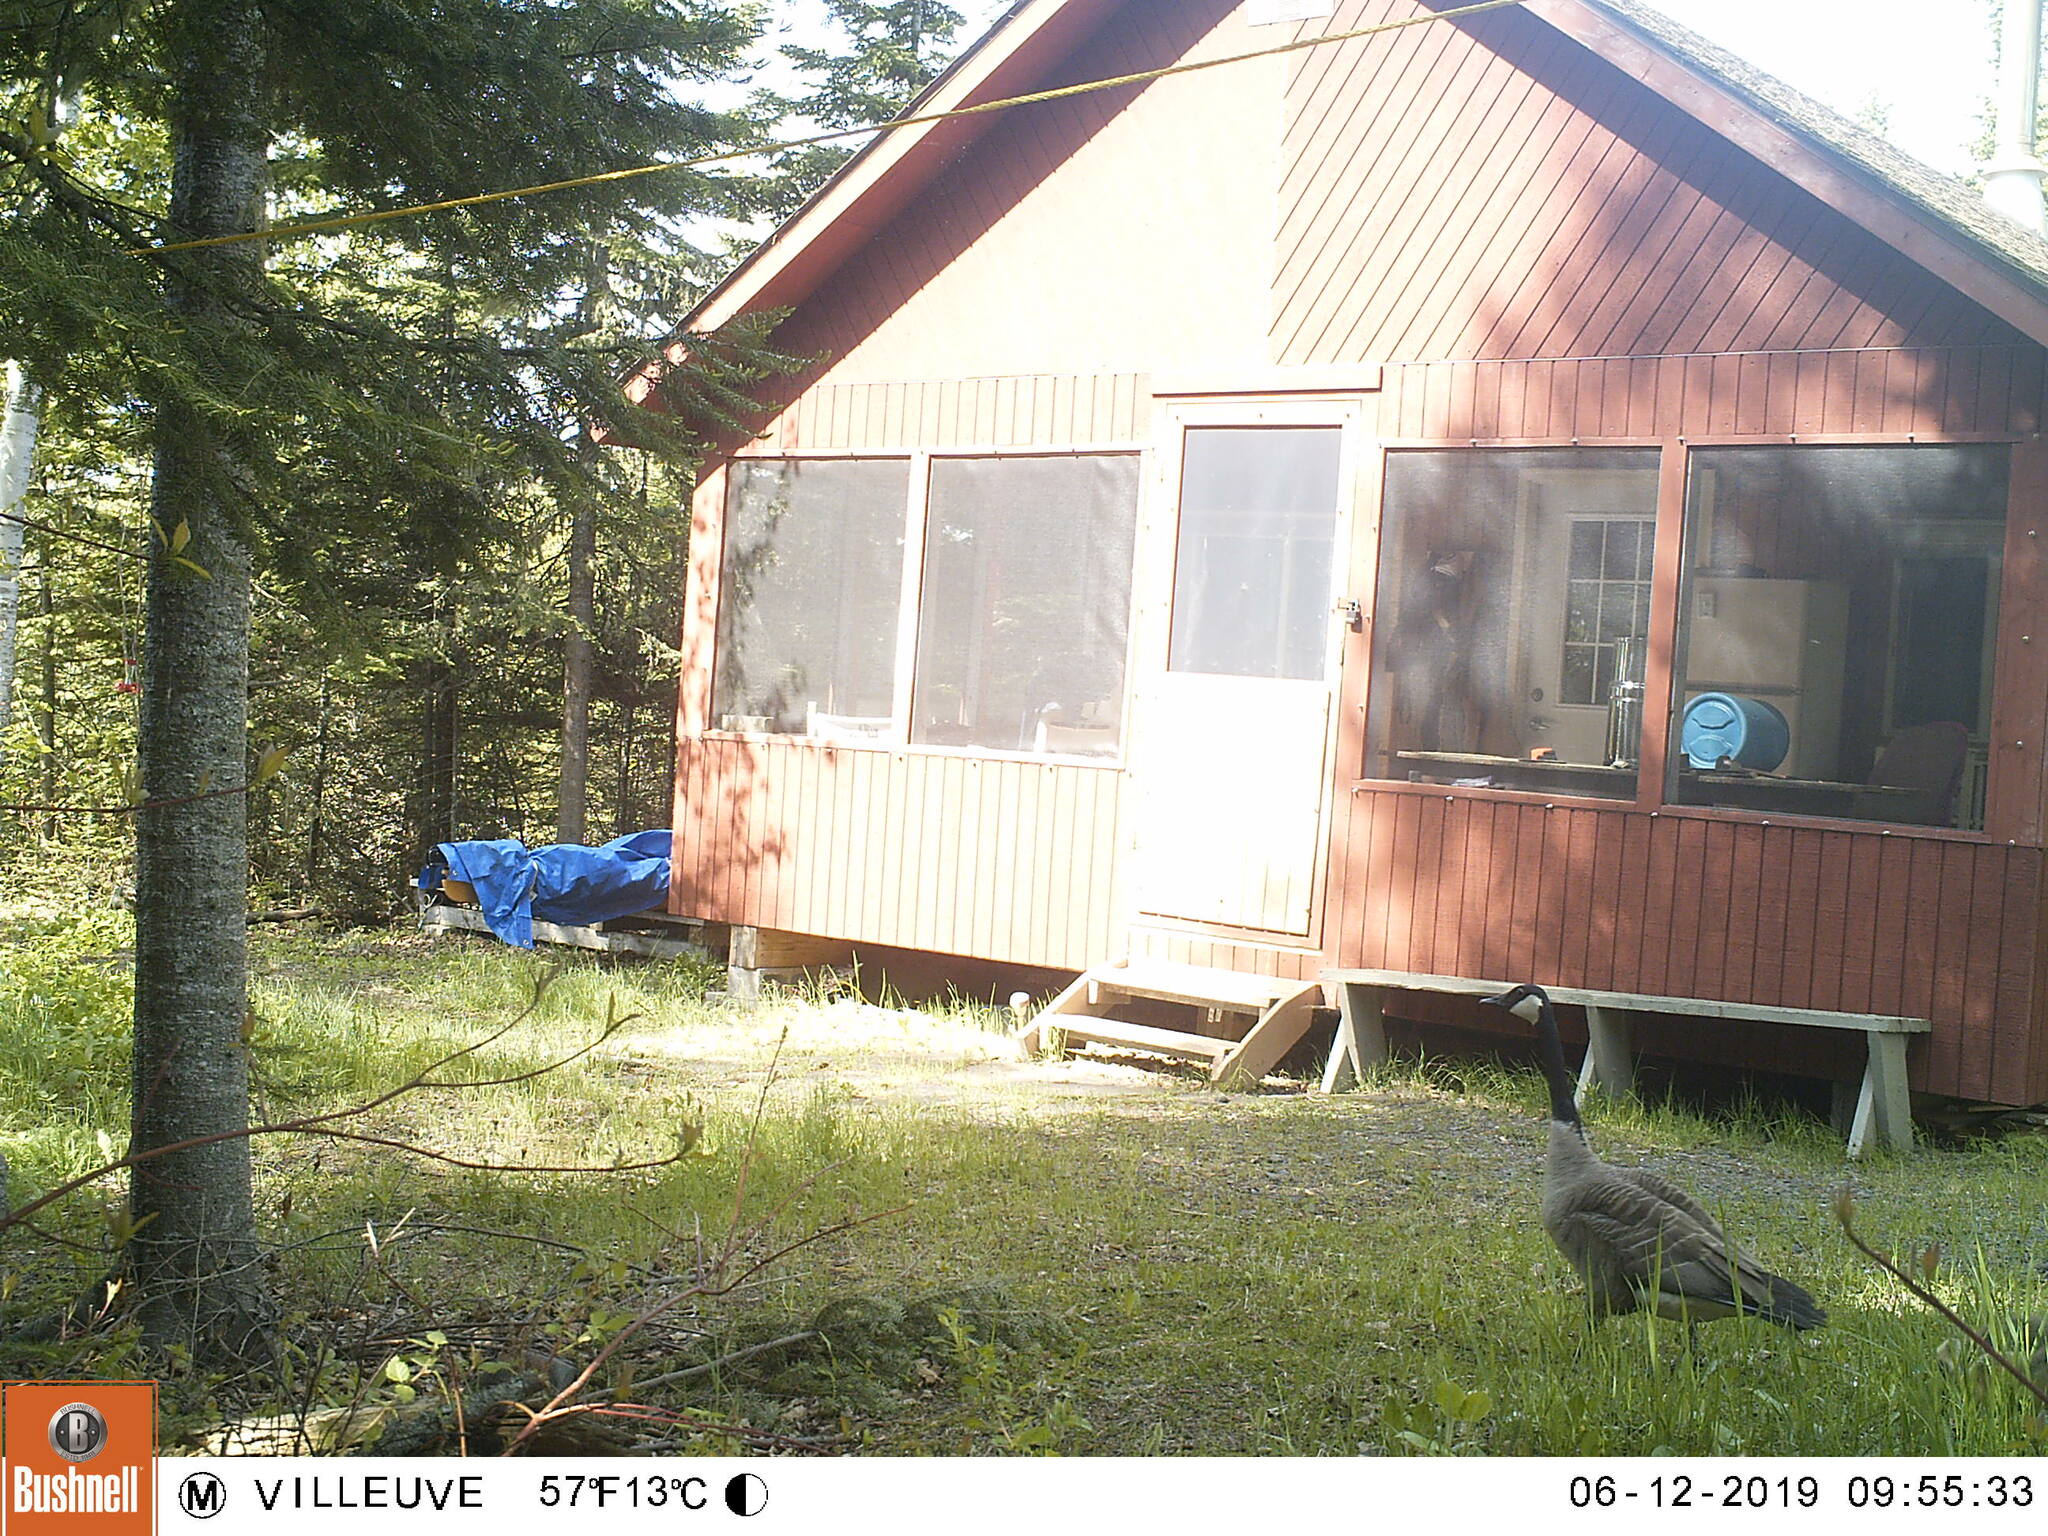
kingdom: Animalia
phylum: Chordata
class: Aves
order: Anseriformes
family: Anatidae
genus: Branta
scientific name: Branta canadensis
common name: Canada goose
